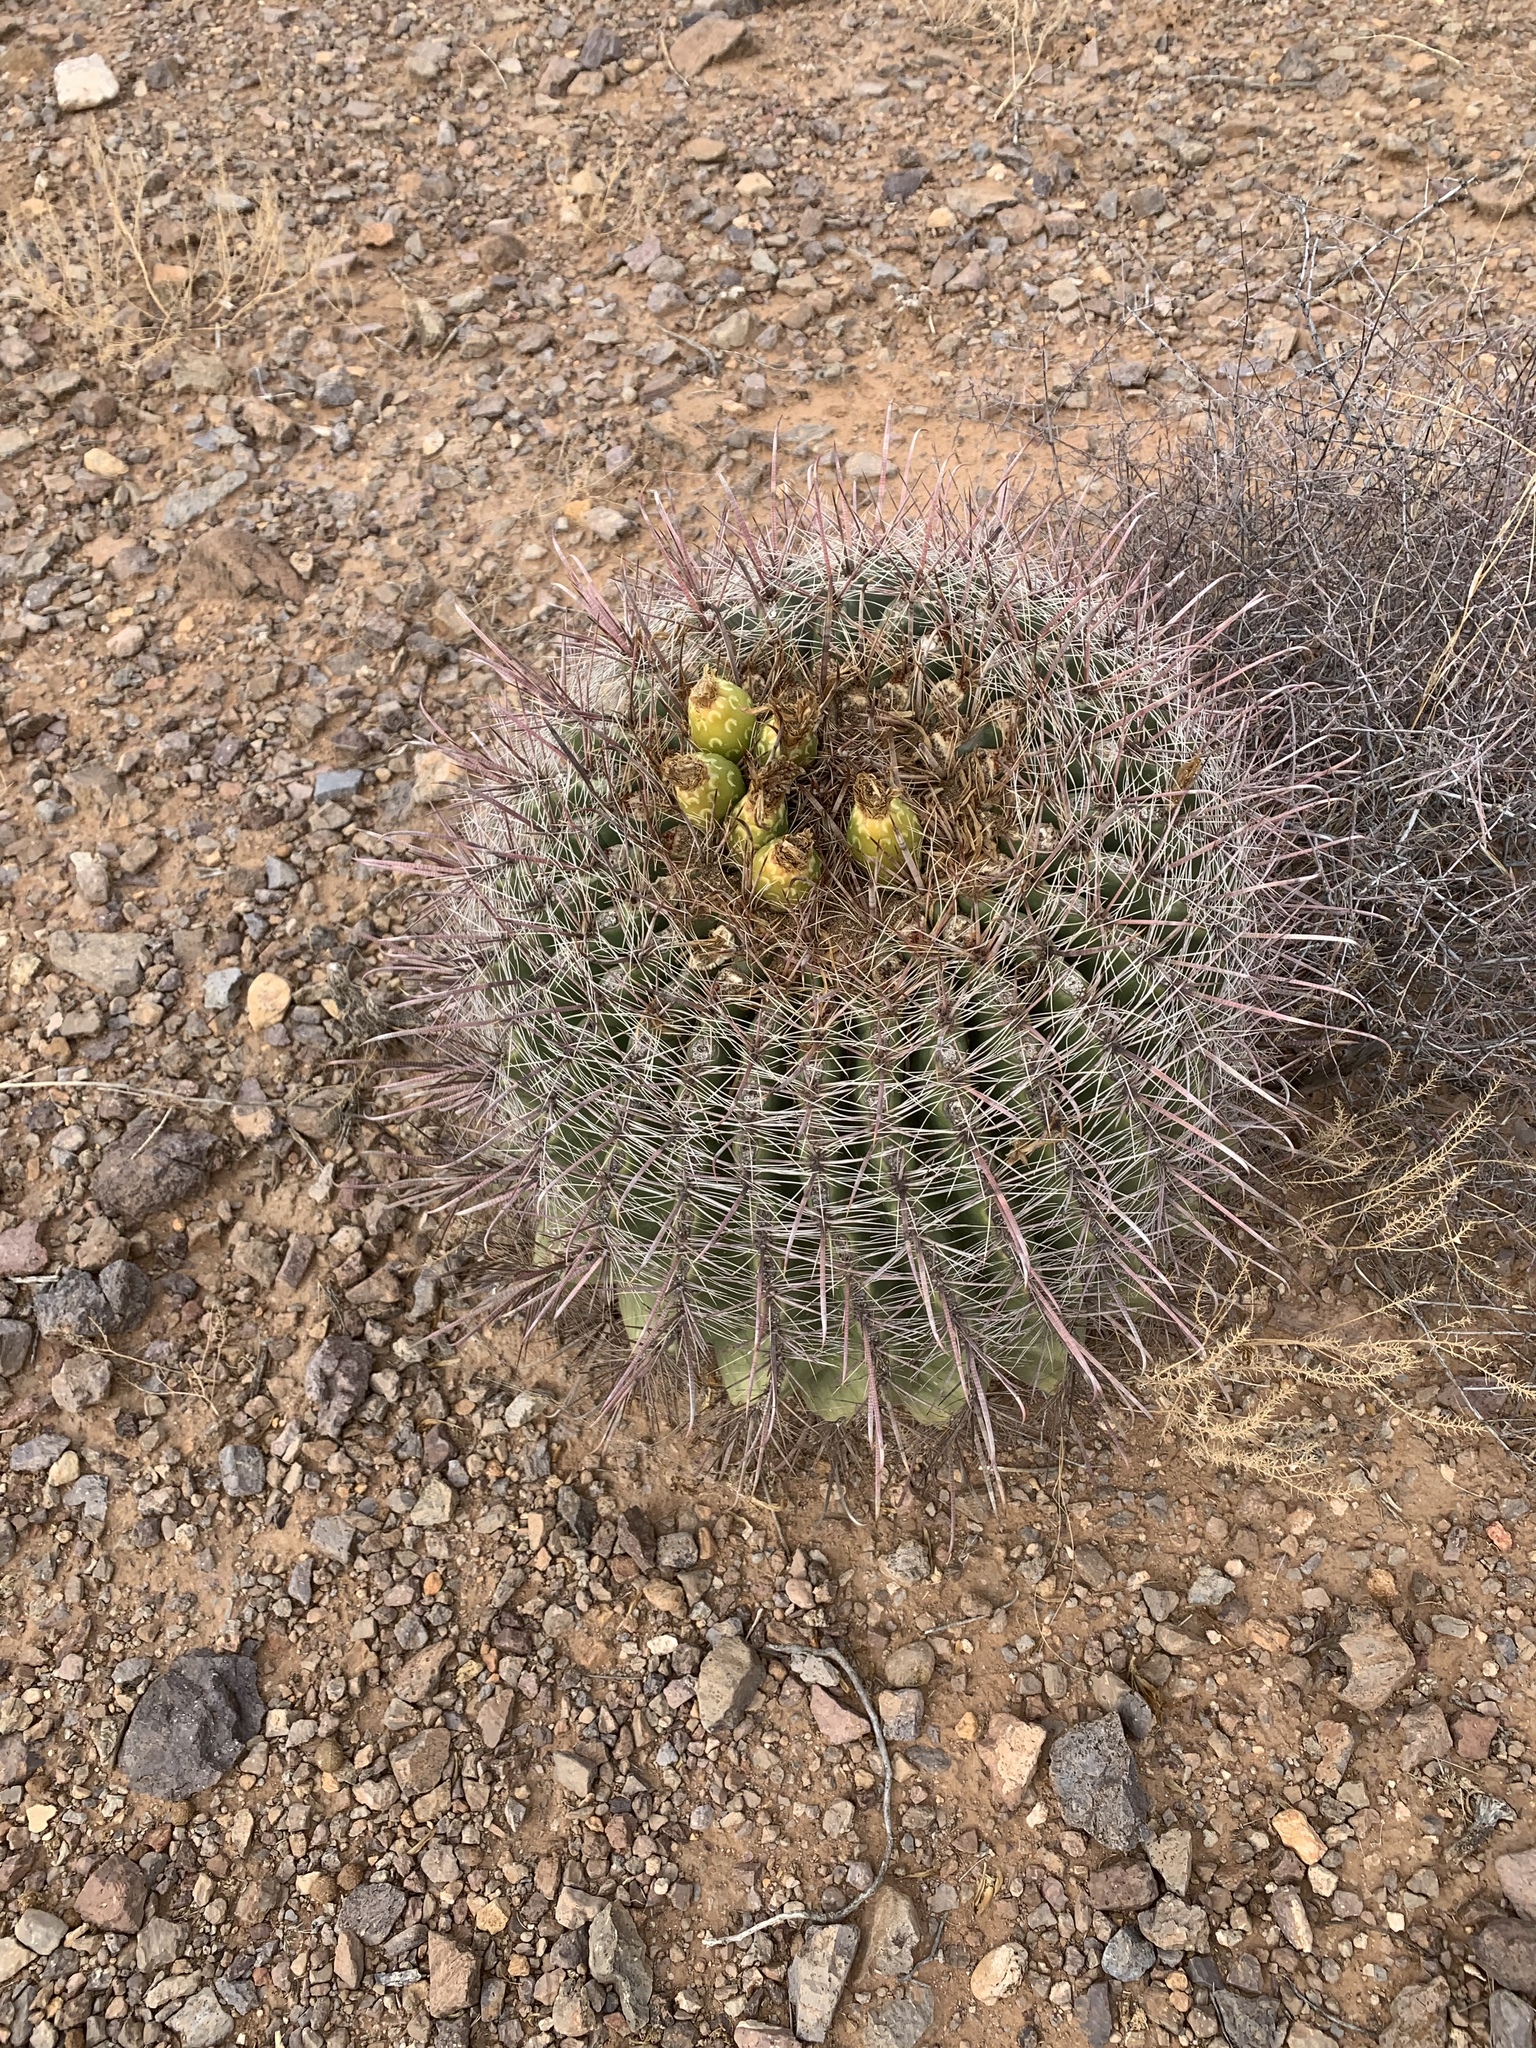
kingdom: Plantae
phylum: Tracheophyta
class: Magnoliopsida
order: Caryophyllales
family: Cactaceae
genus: Ferocactus
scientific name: Ferocactus wislizeni
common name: Candy barrel cactus
